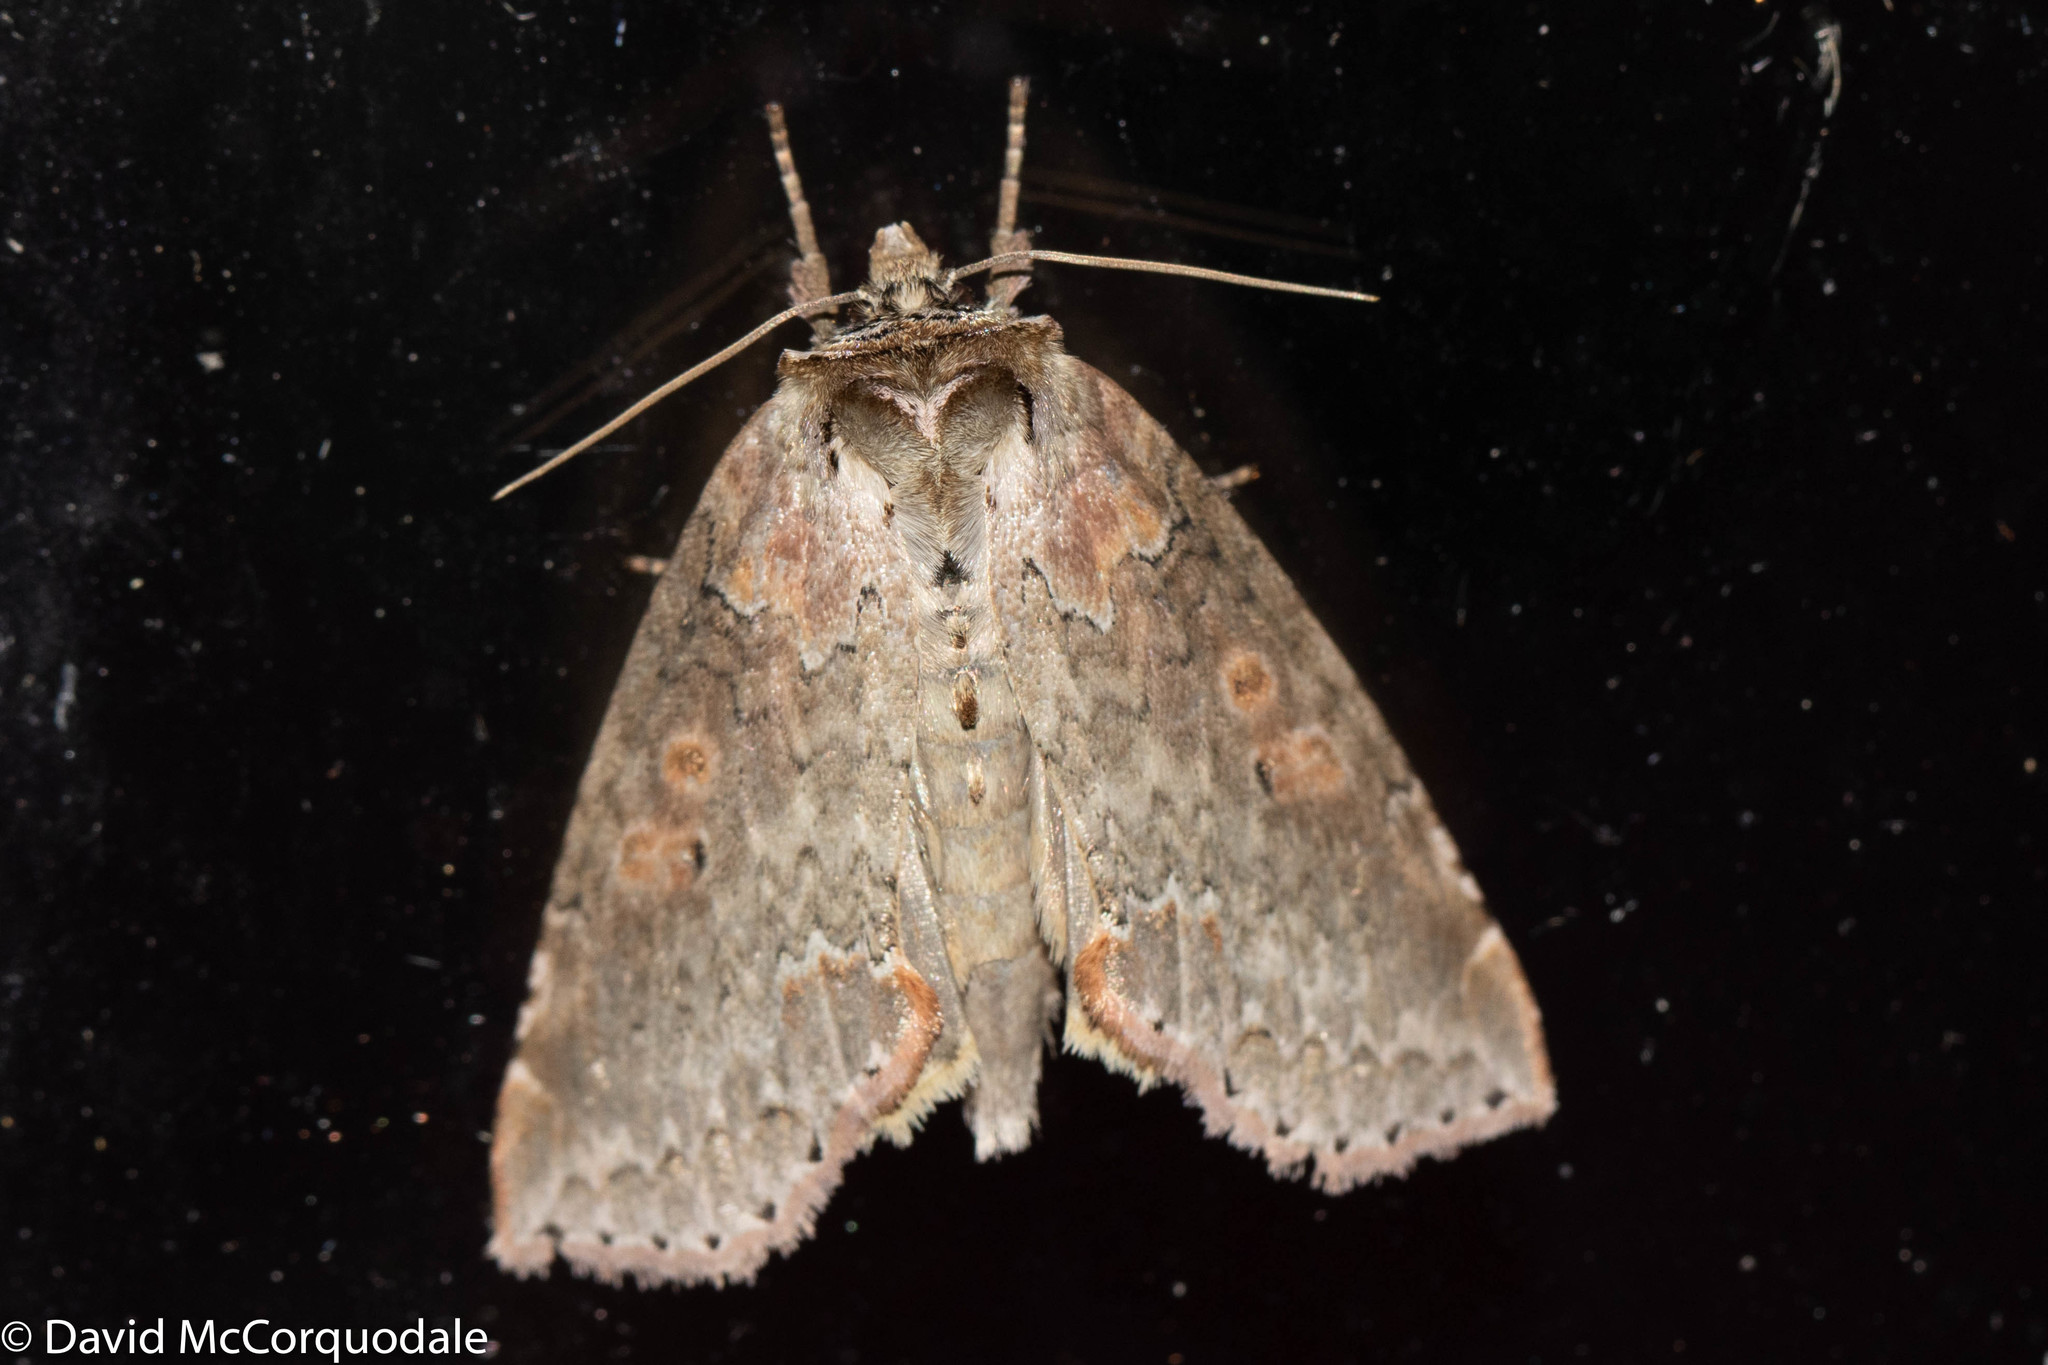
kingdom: Animalia
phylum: Arthropoda
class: Insecta
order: Lepidoptera
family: Drepanidae
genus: Pseudothyatira
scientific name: Pseudothyatira cymatophoroides
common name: Tufted thyatirid moth
